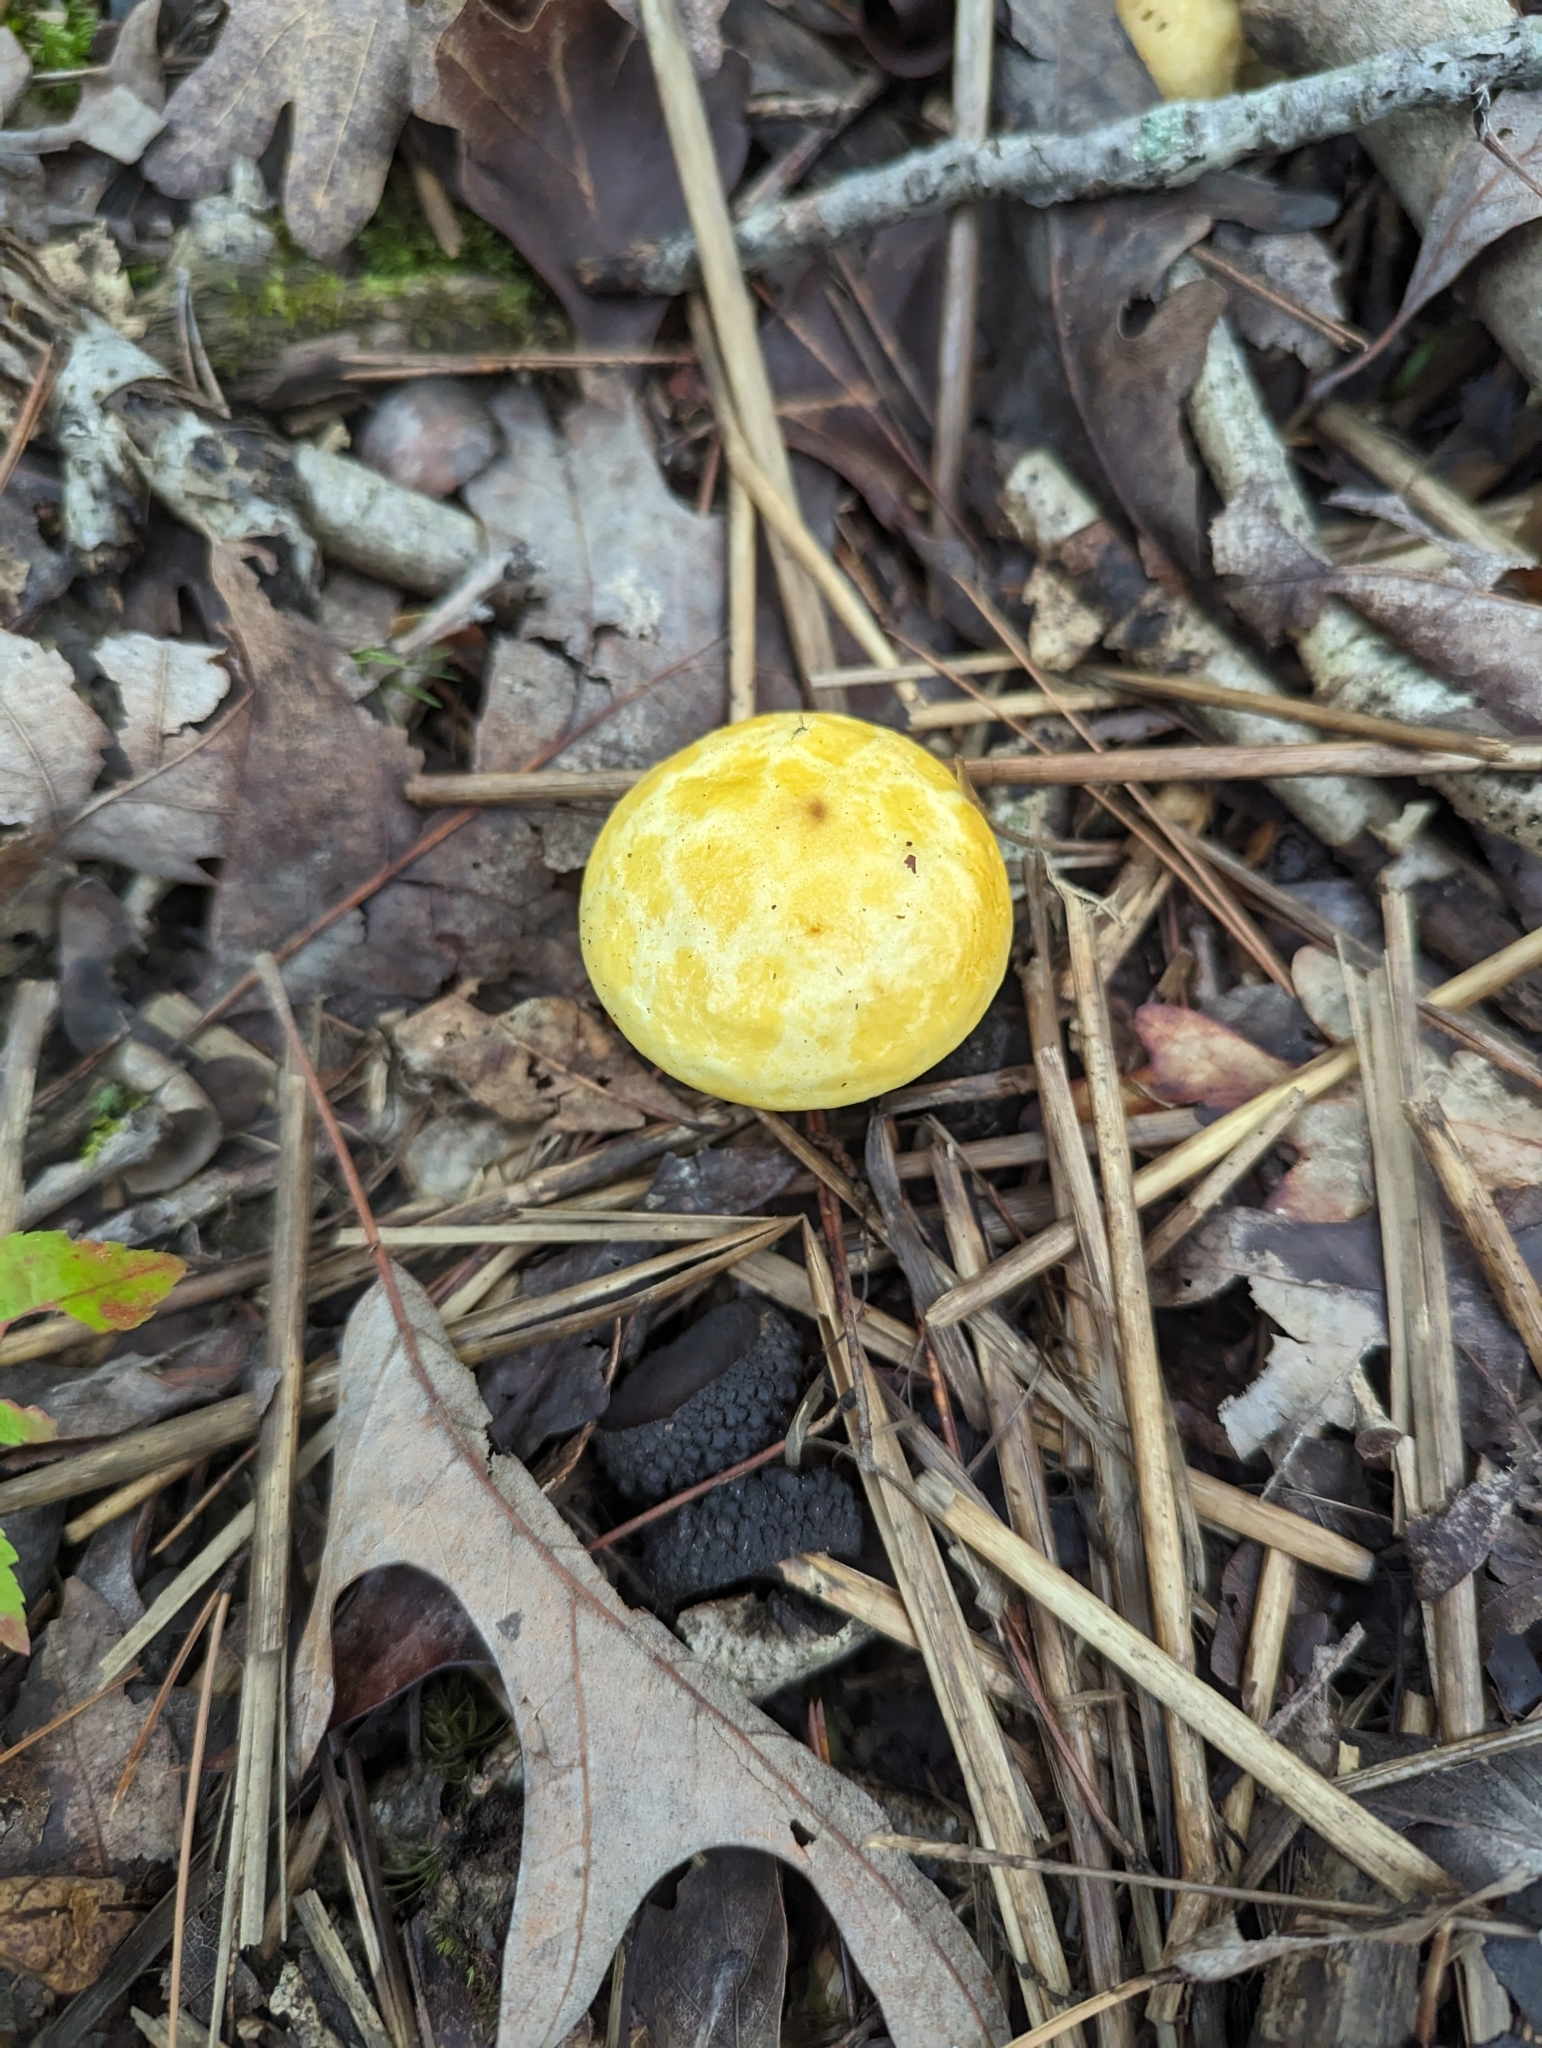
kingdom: Fungi
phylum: Basidiomycota
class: Agaricomycetes
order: Boletales
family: Suillaceae
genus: Suillus
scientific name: Suillus americanus
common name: Chicken fat mushroom
